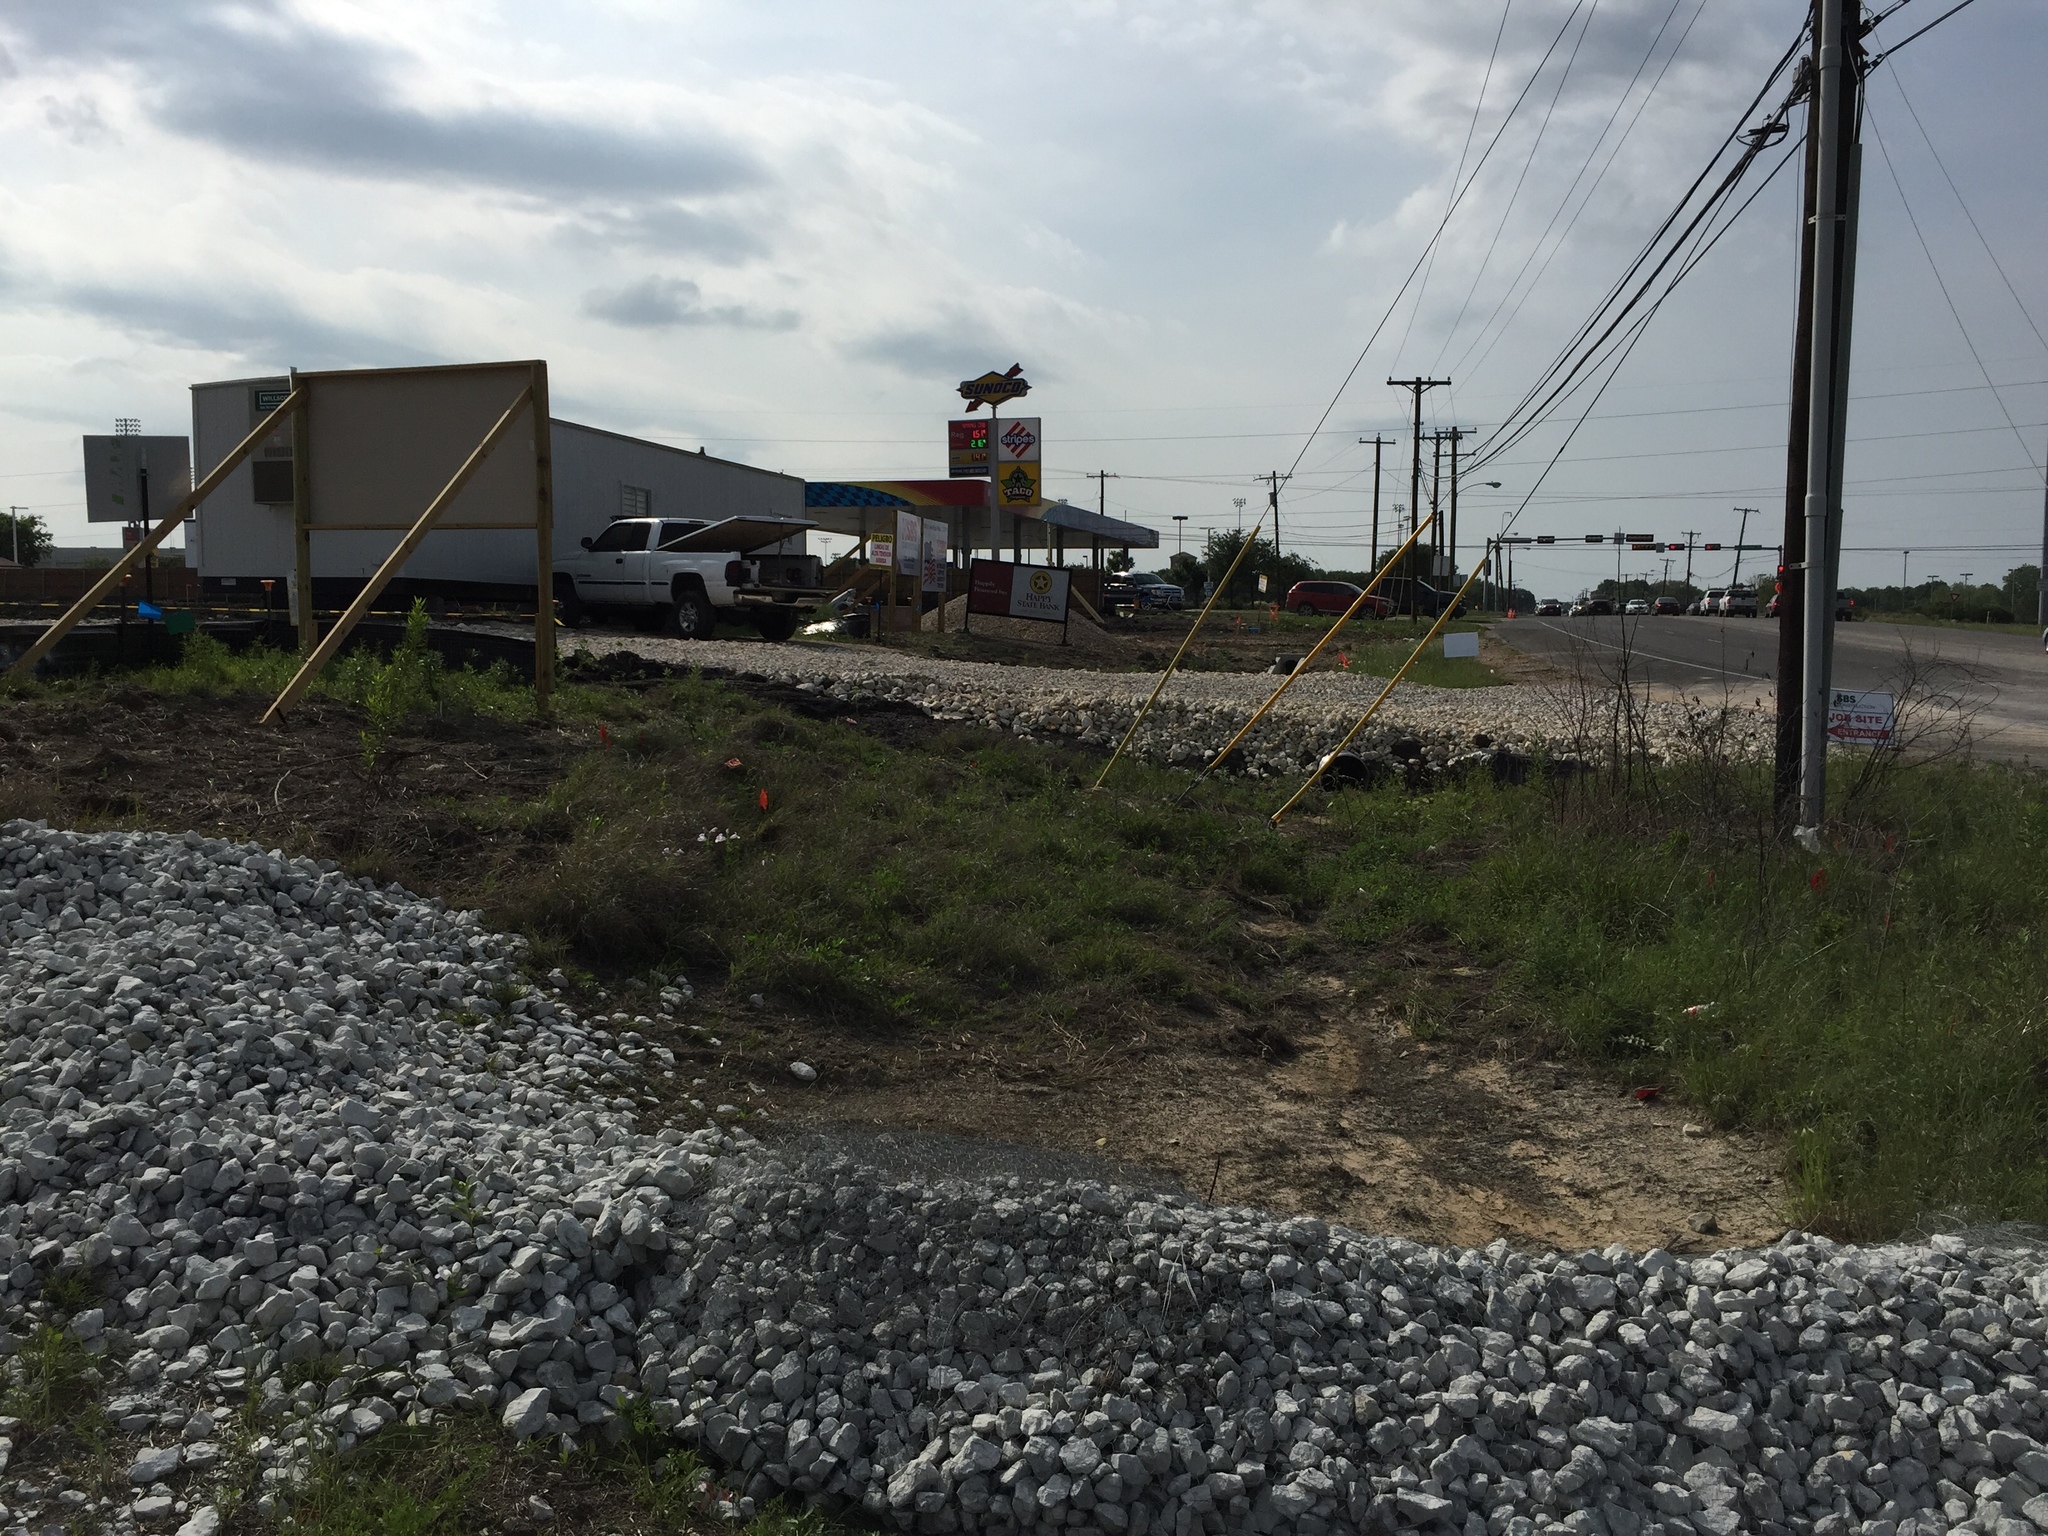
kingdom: Plantae
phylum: Tracheophyta
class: Magnoliopsida
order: Asterales
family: Asteraceae
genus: Silphium
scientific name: Silphium laciniatum
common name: Polarplant
